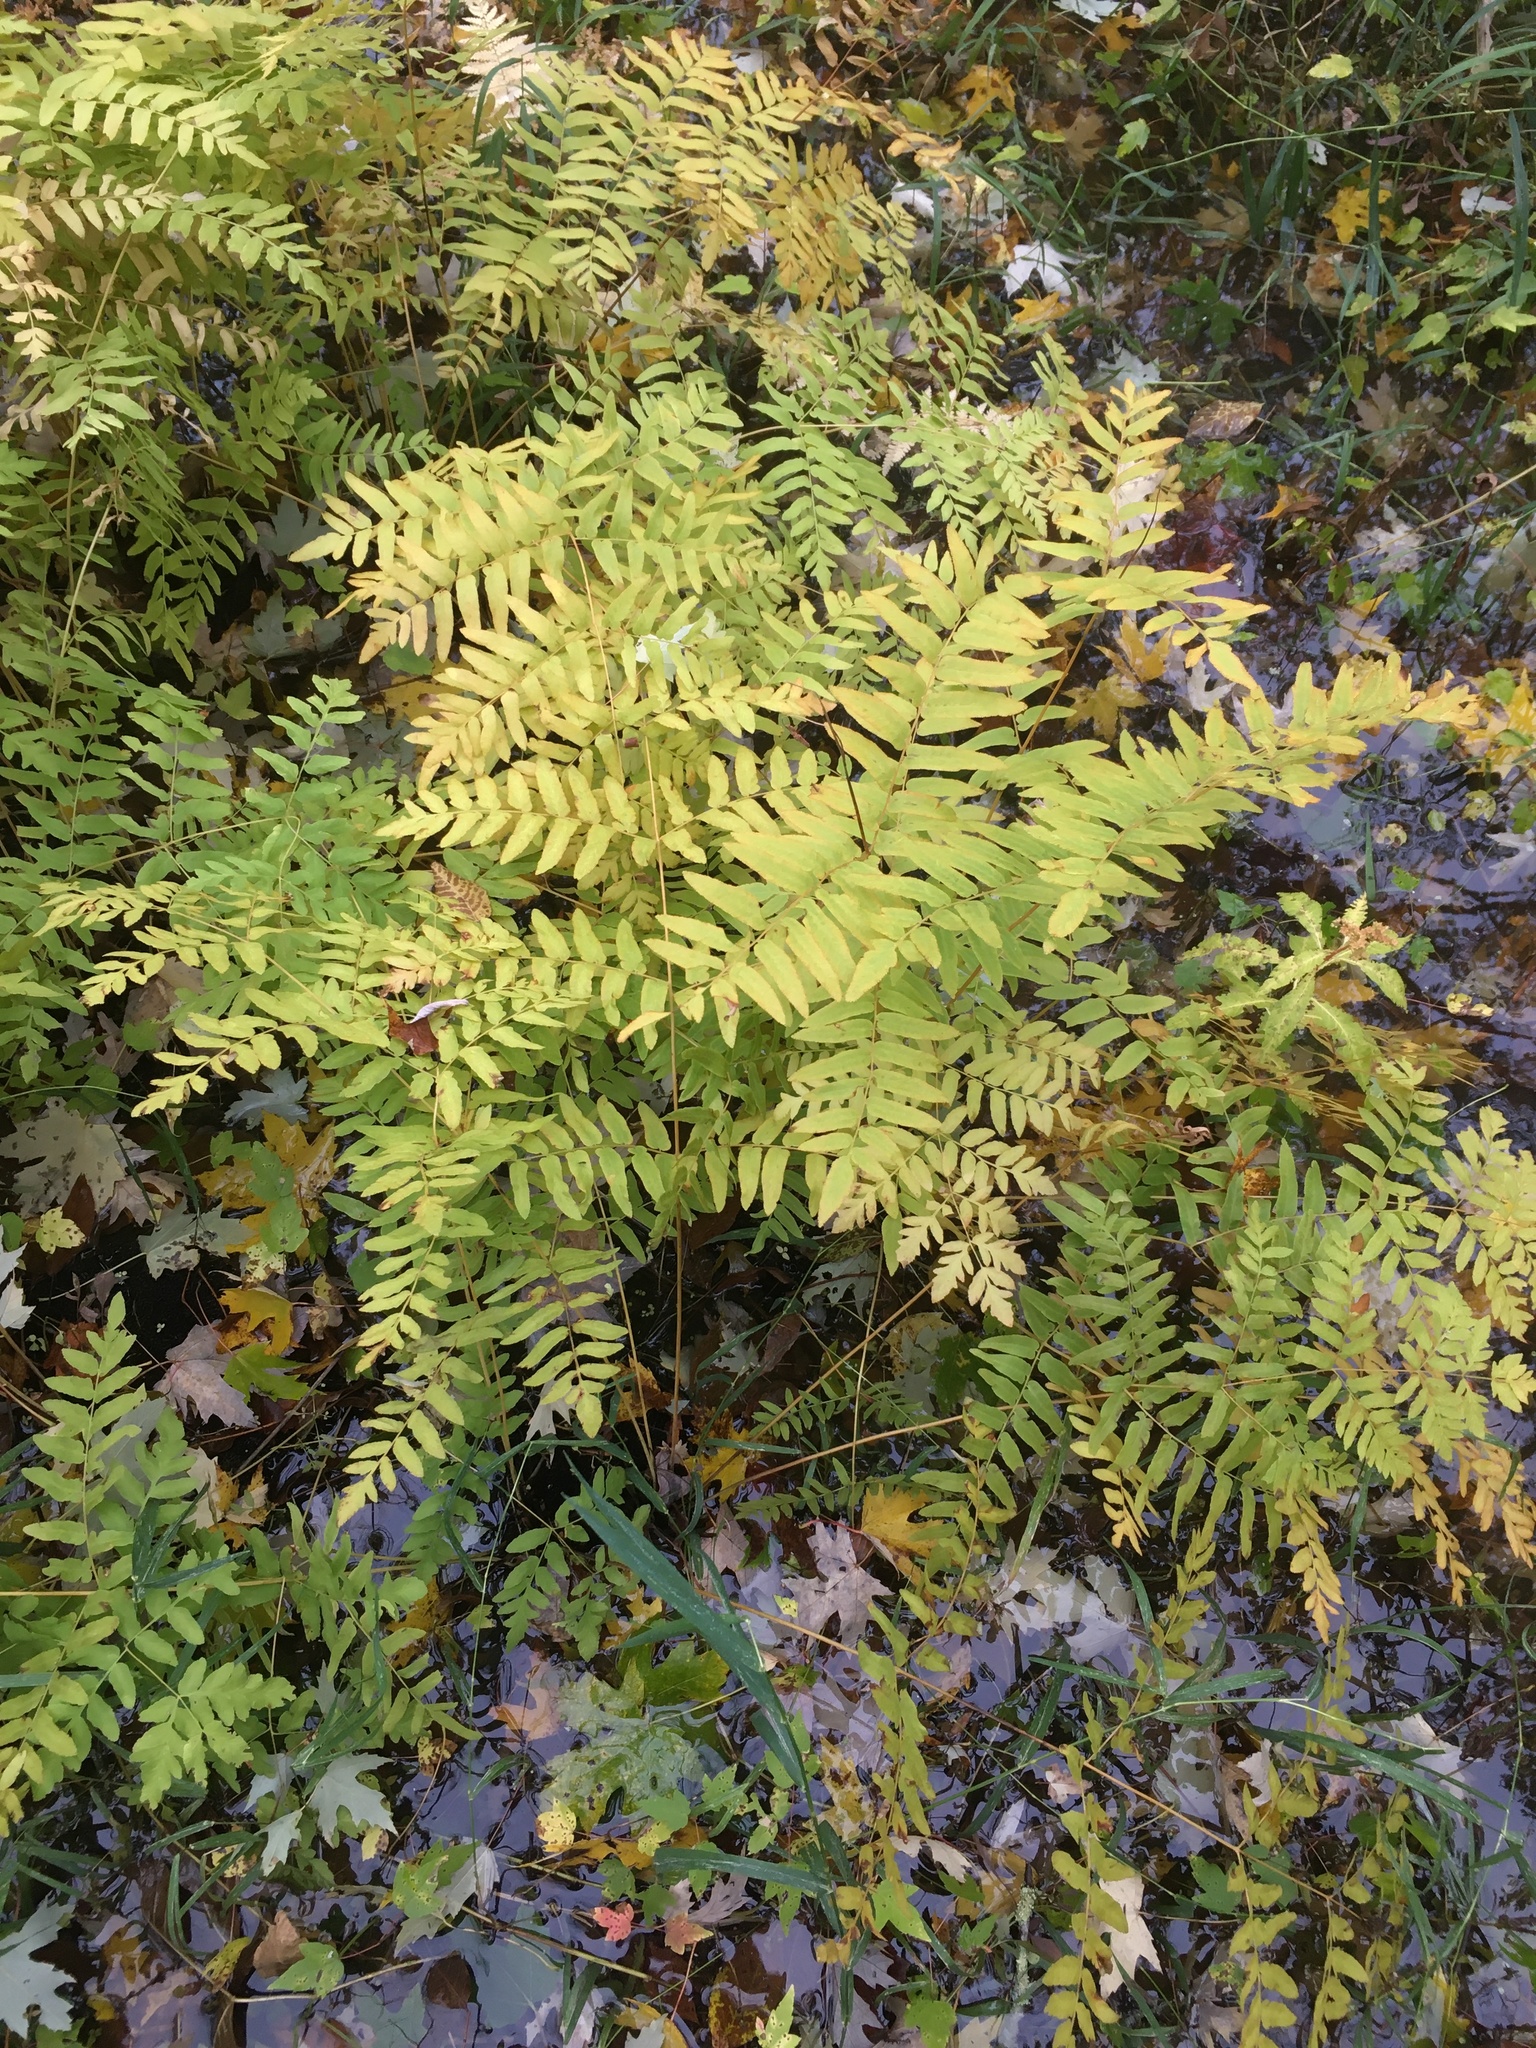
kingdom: Plantae
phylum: Tracheophyta
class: Polypodiopsida
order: Osmundales
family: Osmundaceae
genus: Osmunda
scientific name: Osmunda spectabilis
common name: American royal fern
